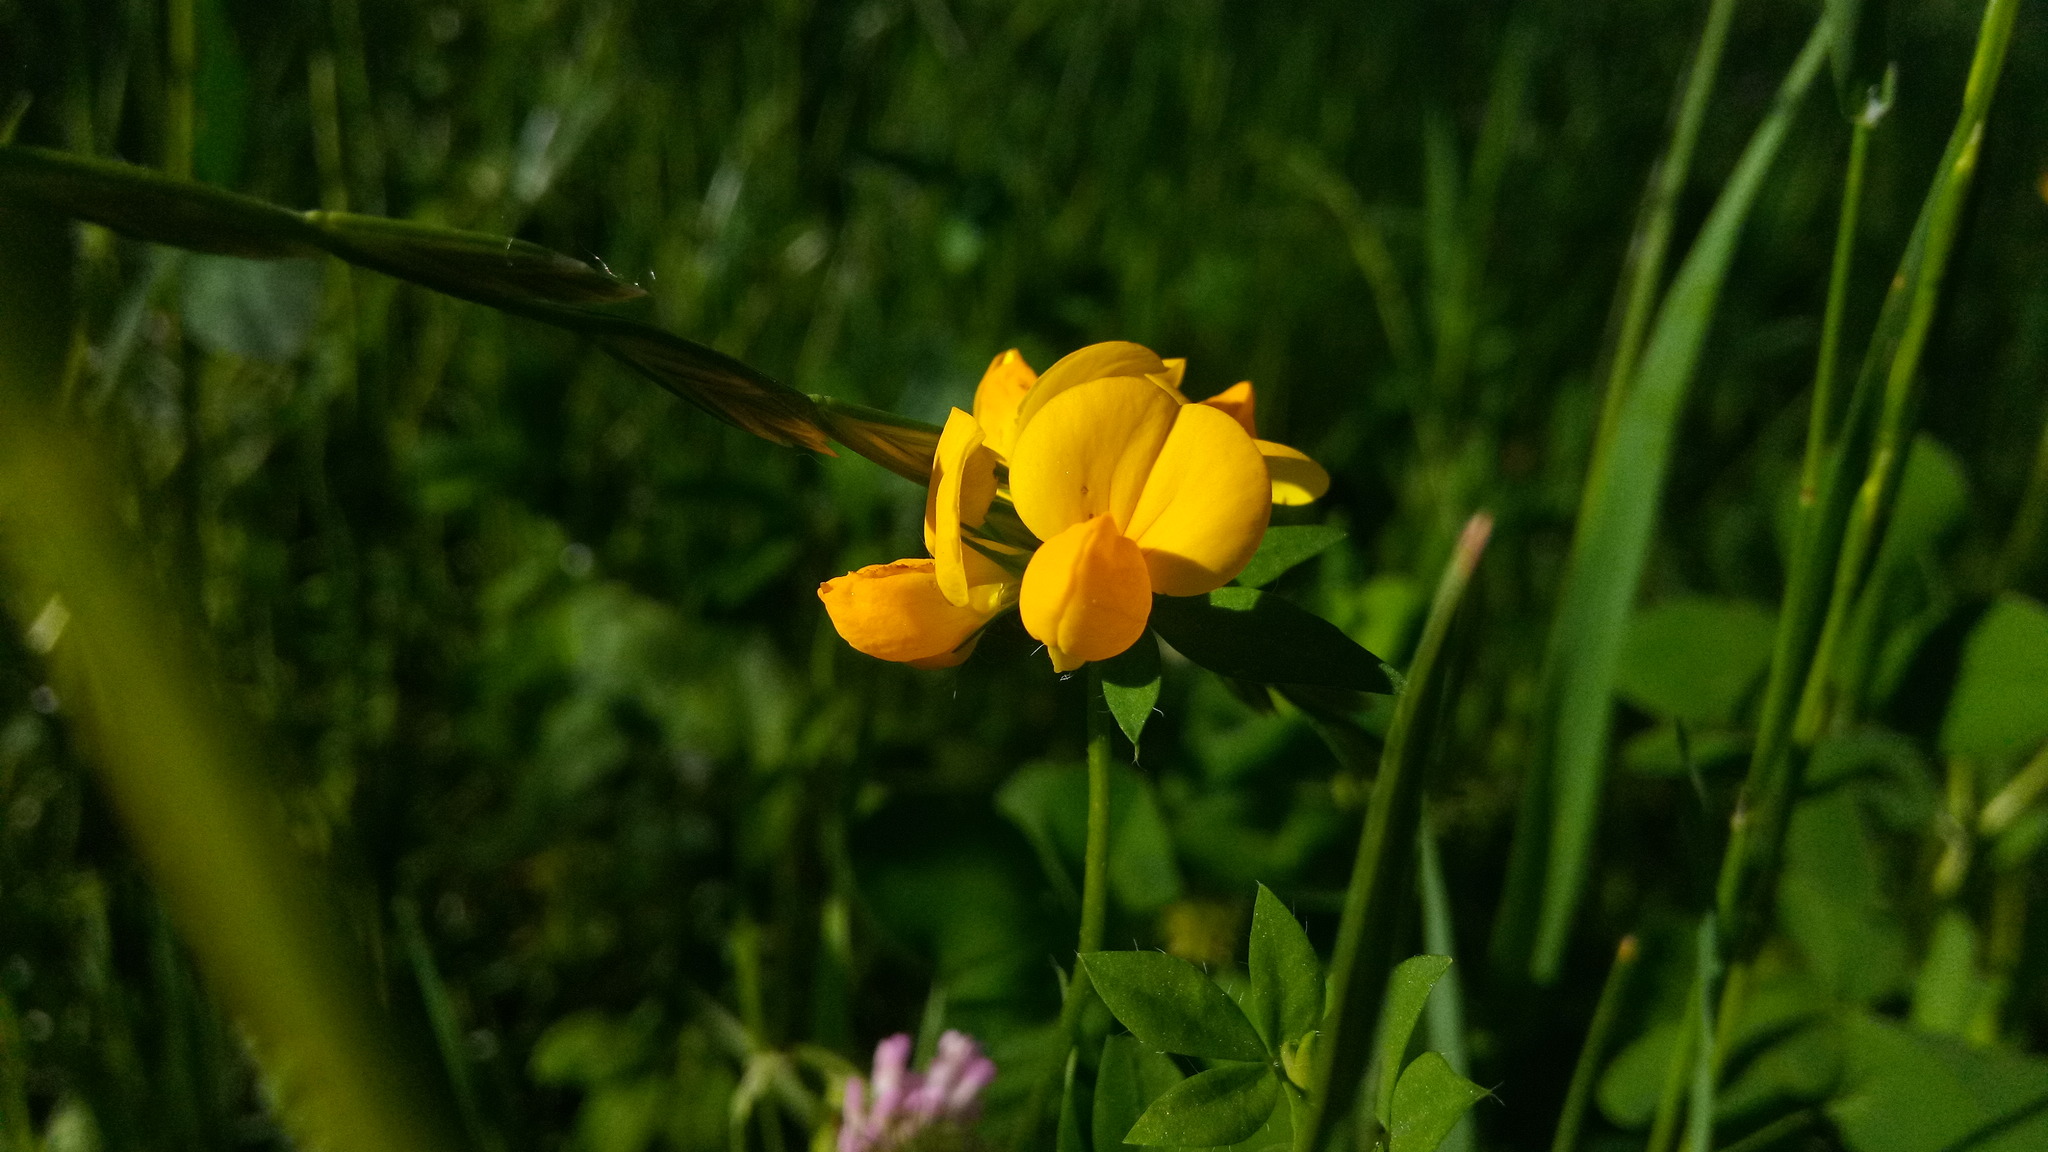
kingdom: Plantae
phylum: Tracheophyta
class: Magnoliopsida
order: Fabales
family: Fabaceae
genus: Lotus
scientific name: Lotus corniculatus
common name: Common bird's-foot-trefoil
